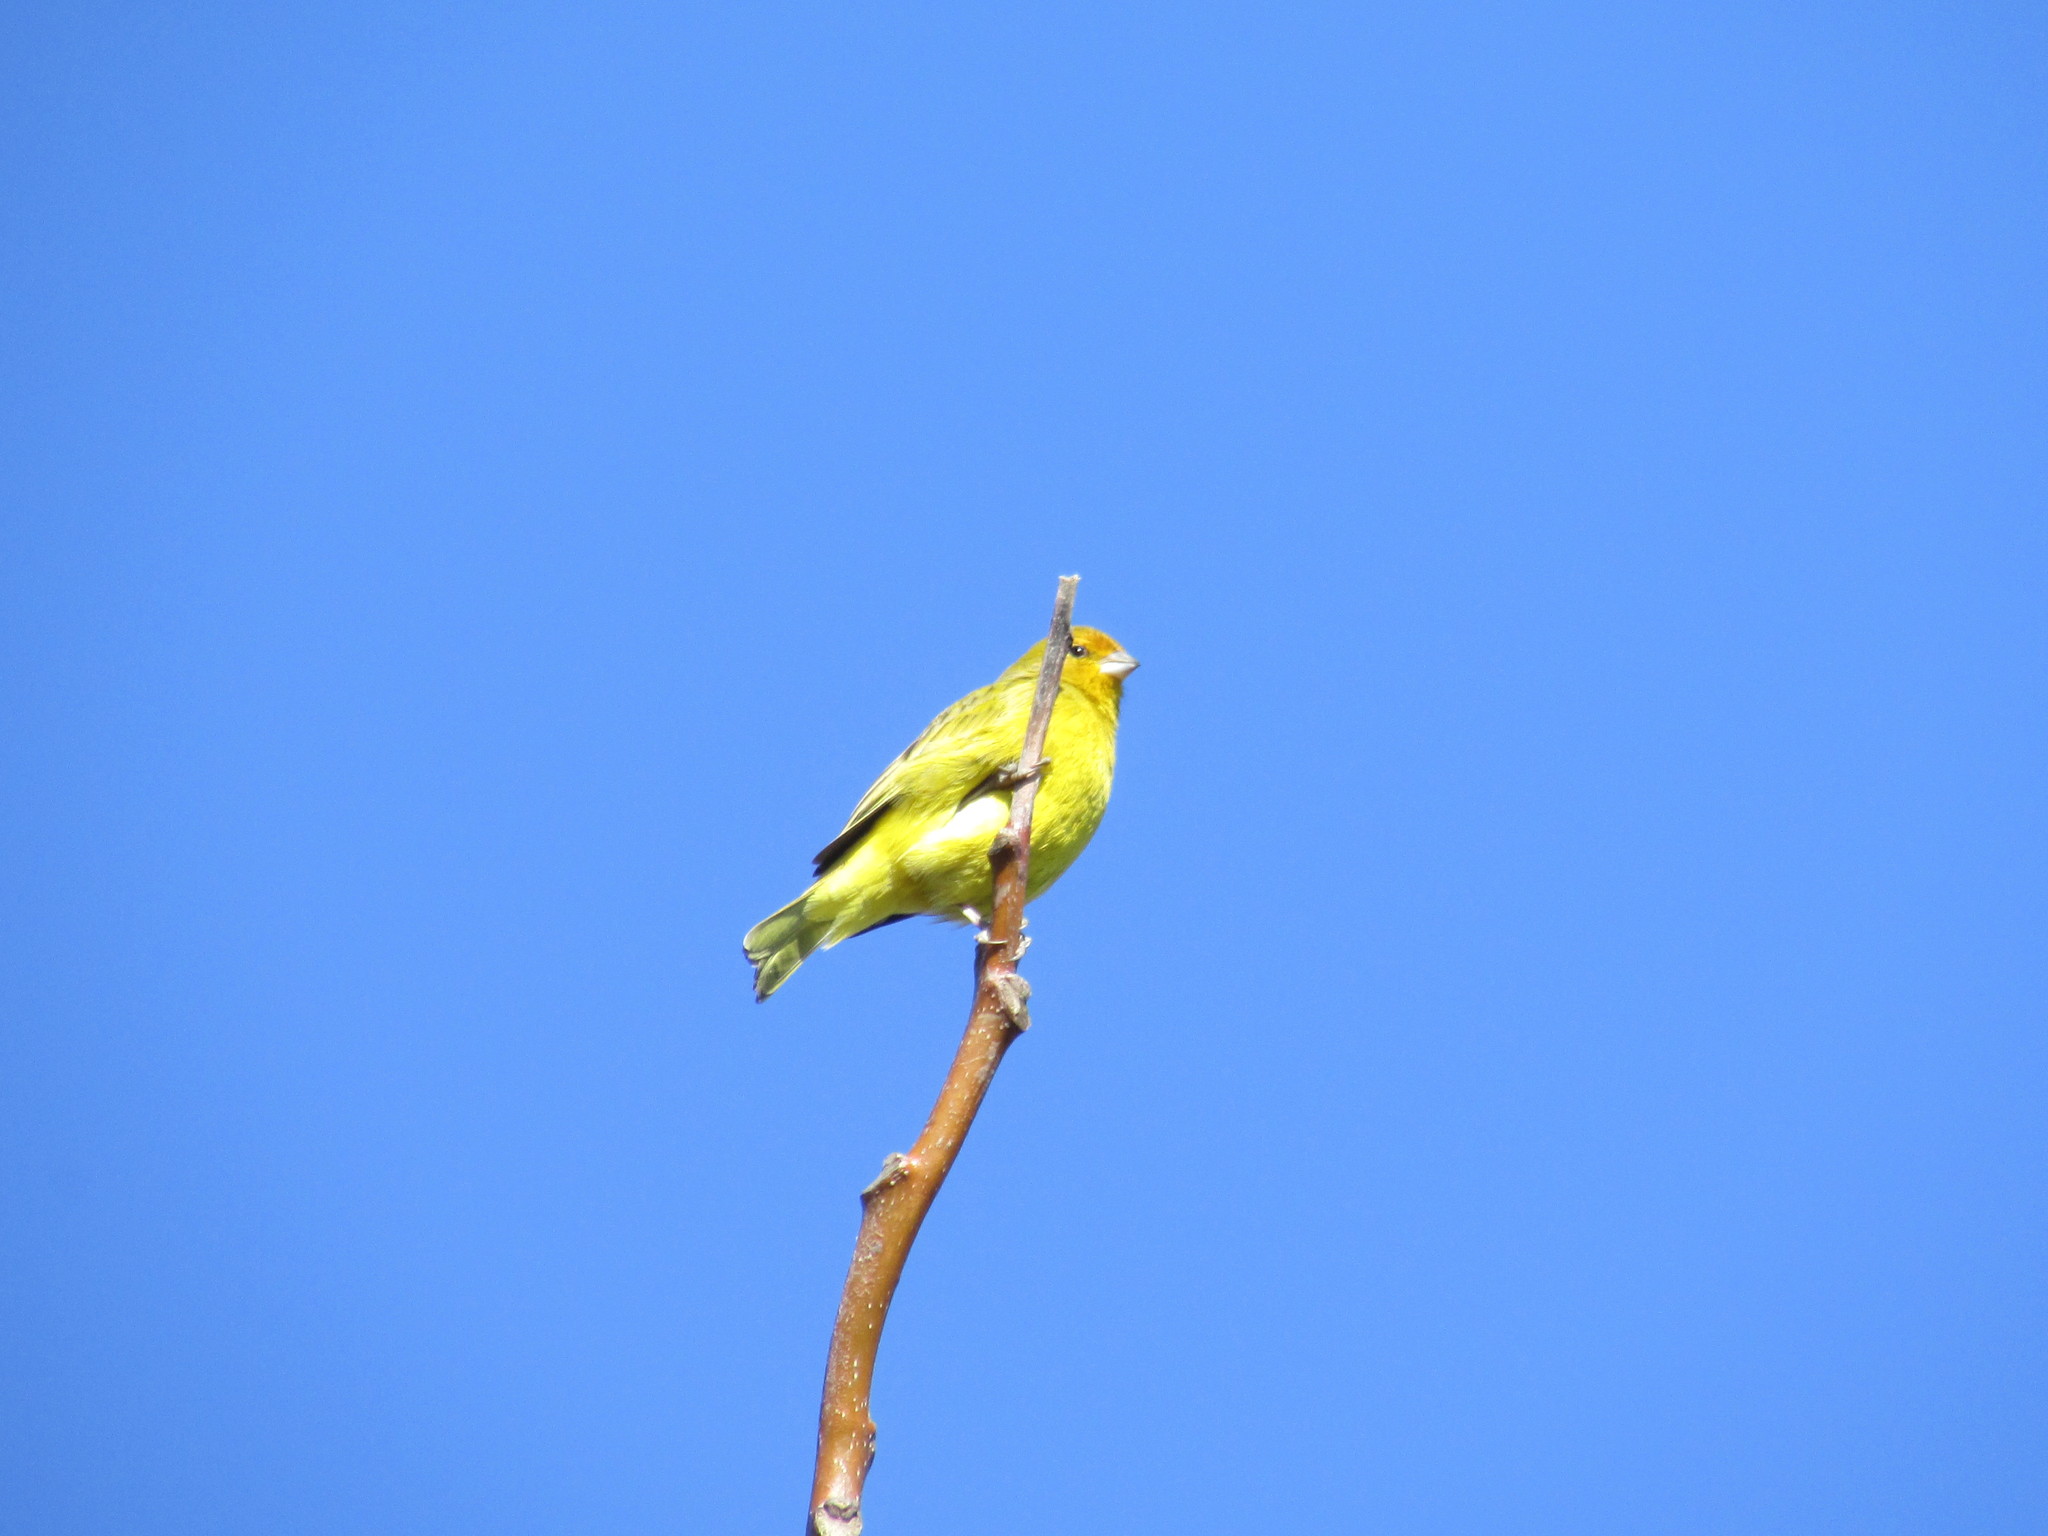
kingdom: Animalia
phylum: Chordata
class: Aves
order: Passeriformes
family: Thraupidae
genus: Sicalis
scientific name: Sicalis flaveola
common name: Saffron finch
